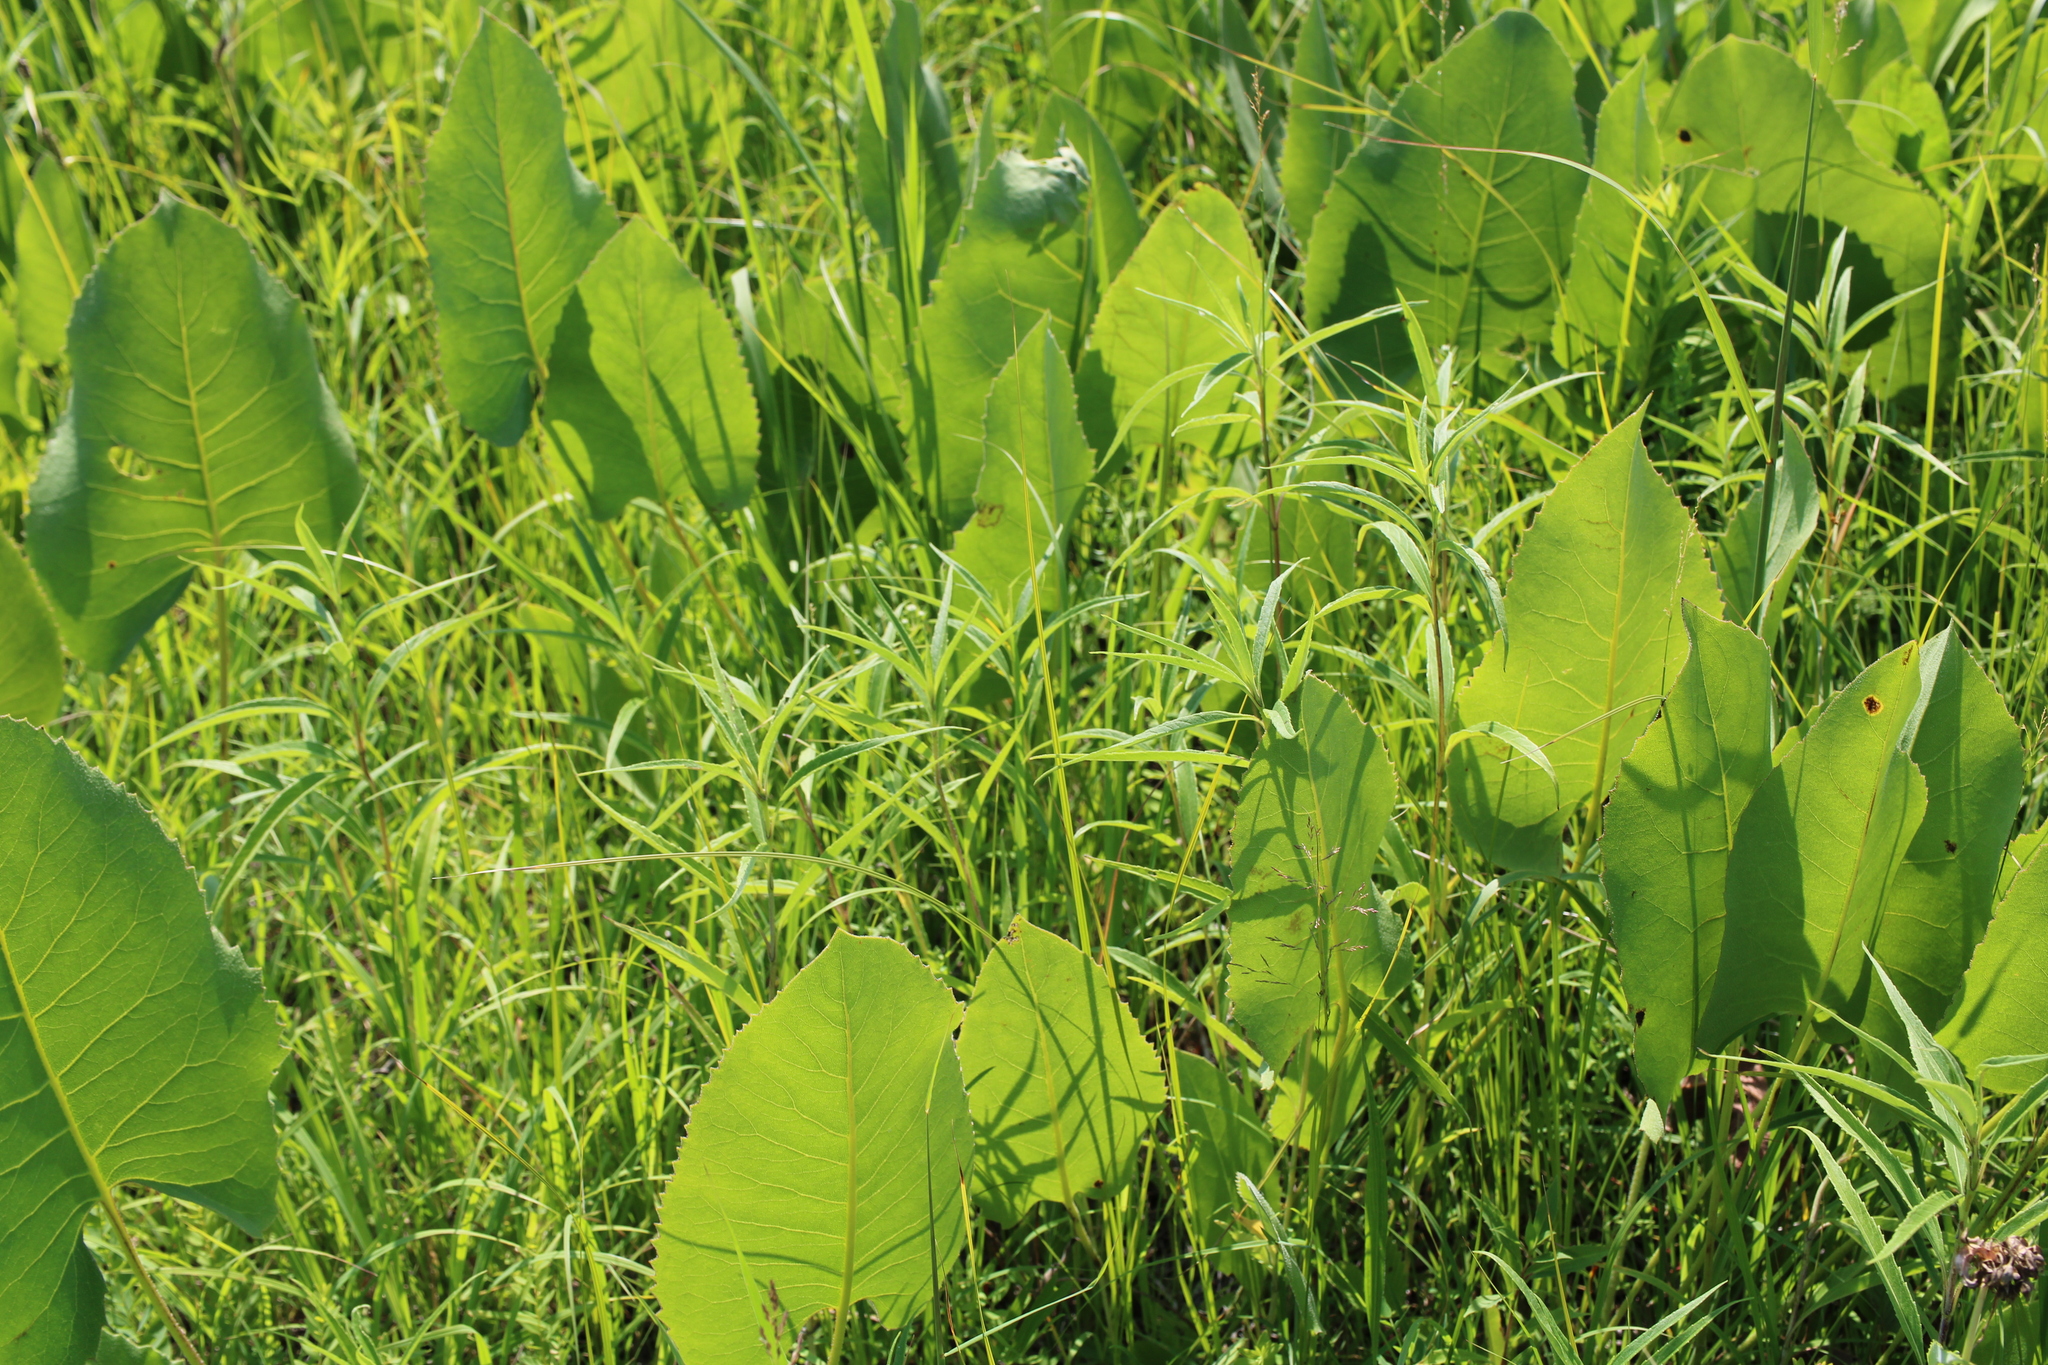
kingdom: Plantae
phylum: Tracheophyta
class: Magnoliopsida
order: Asterales
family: Asteraceae
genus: Silphium
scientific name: Silphium terebinthinaceum
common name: Basal-leaf rosinweed
